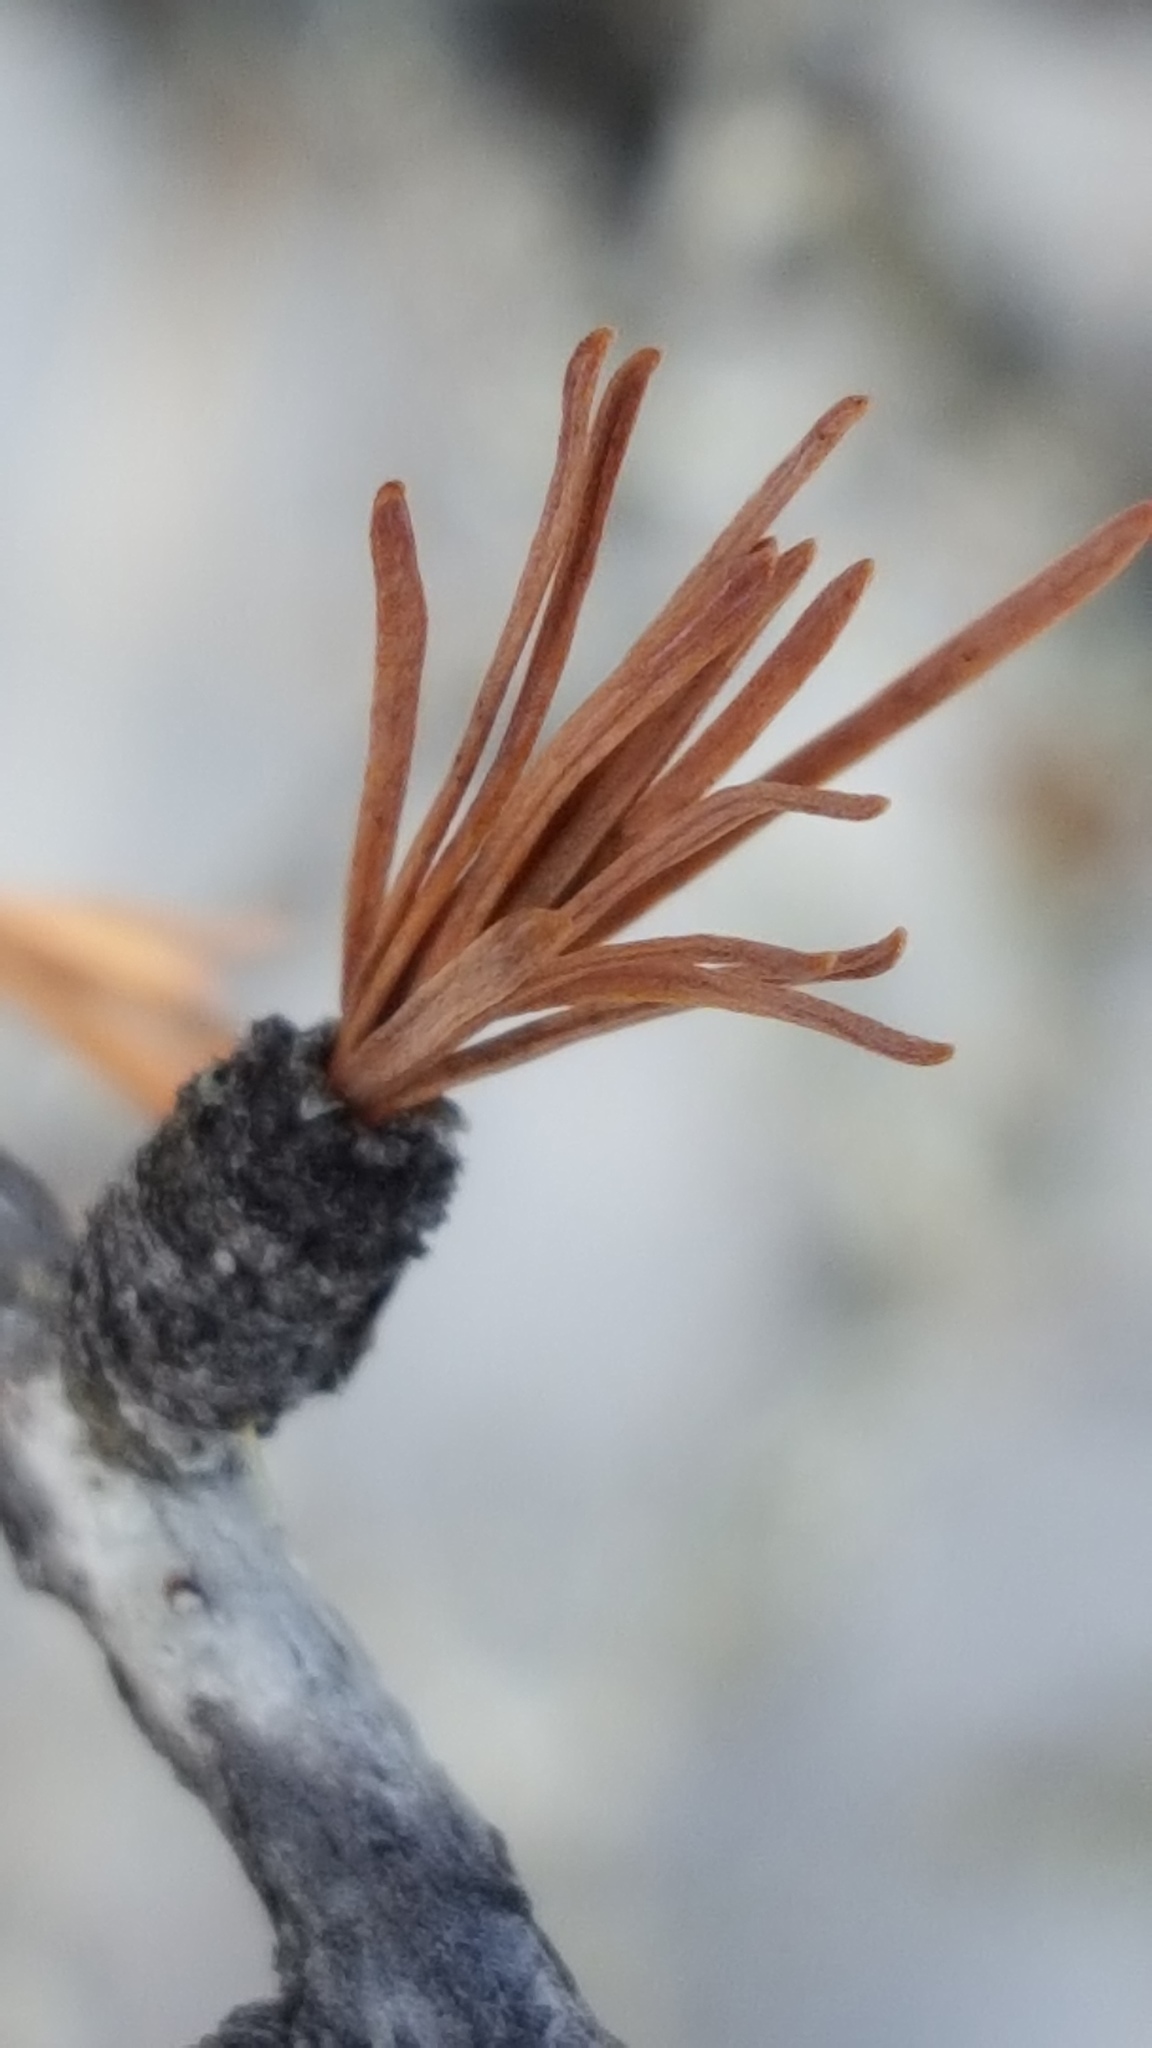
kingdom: Plantae
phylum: Tracheophyta
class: Pinopsida
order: Pinales
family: Pinaceae
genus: Larix
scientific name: Larix laricina
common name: American larch
